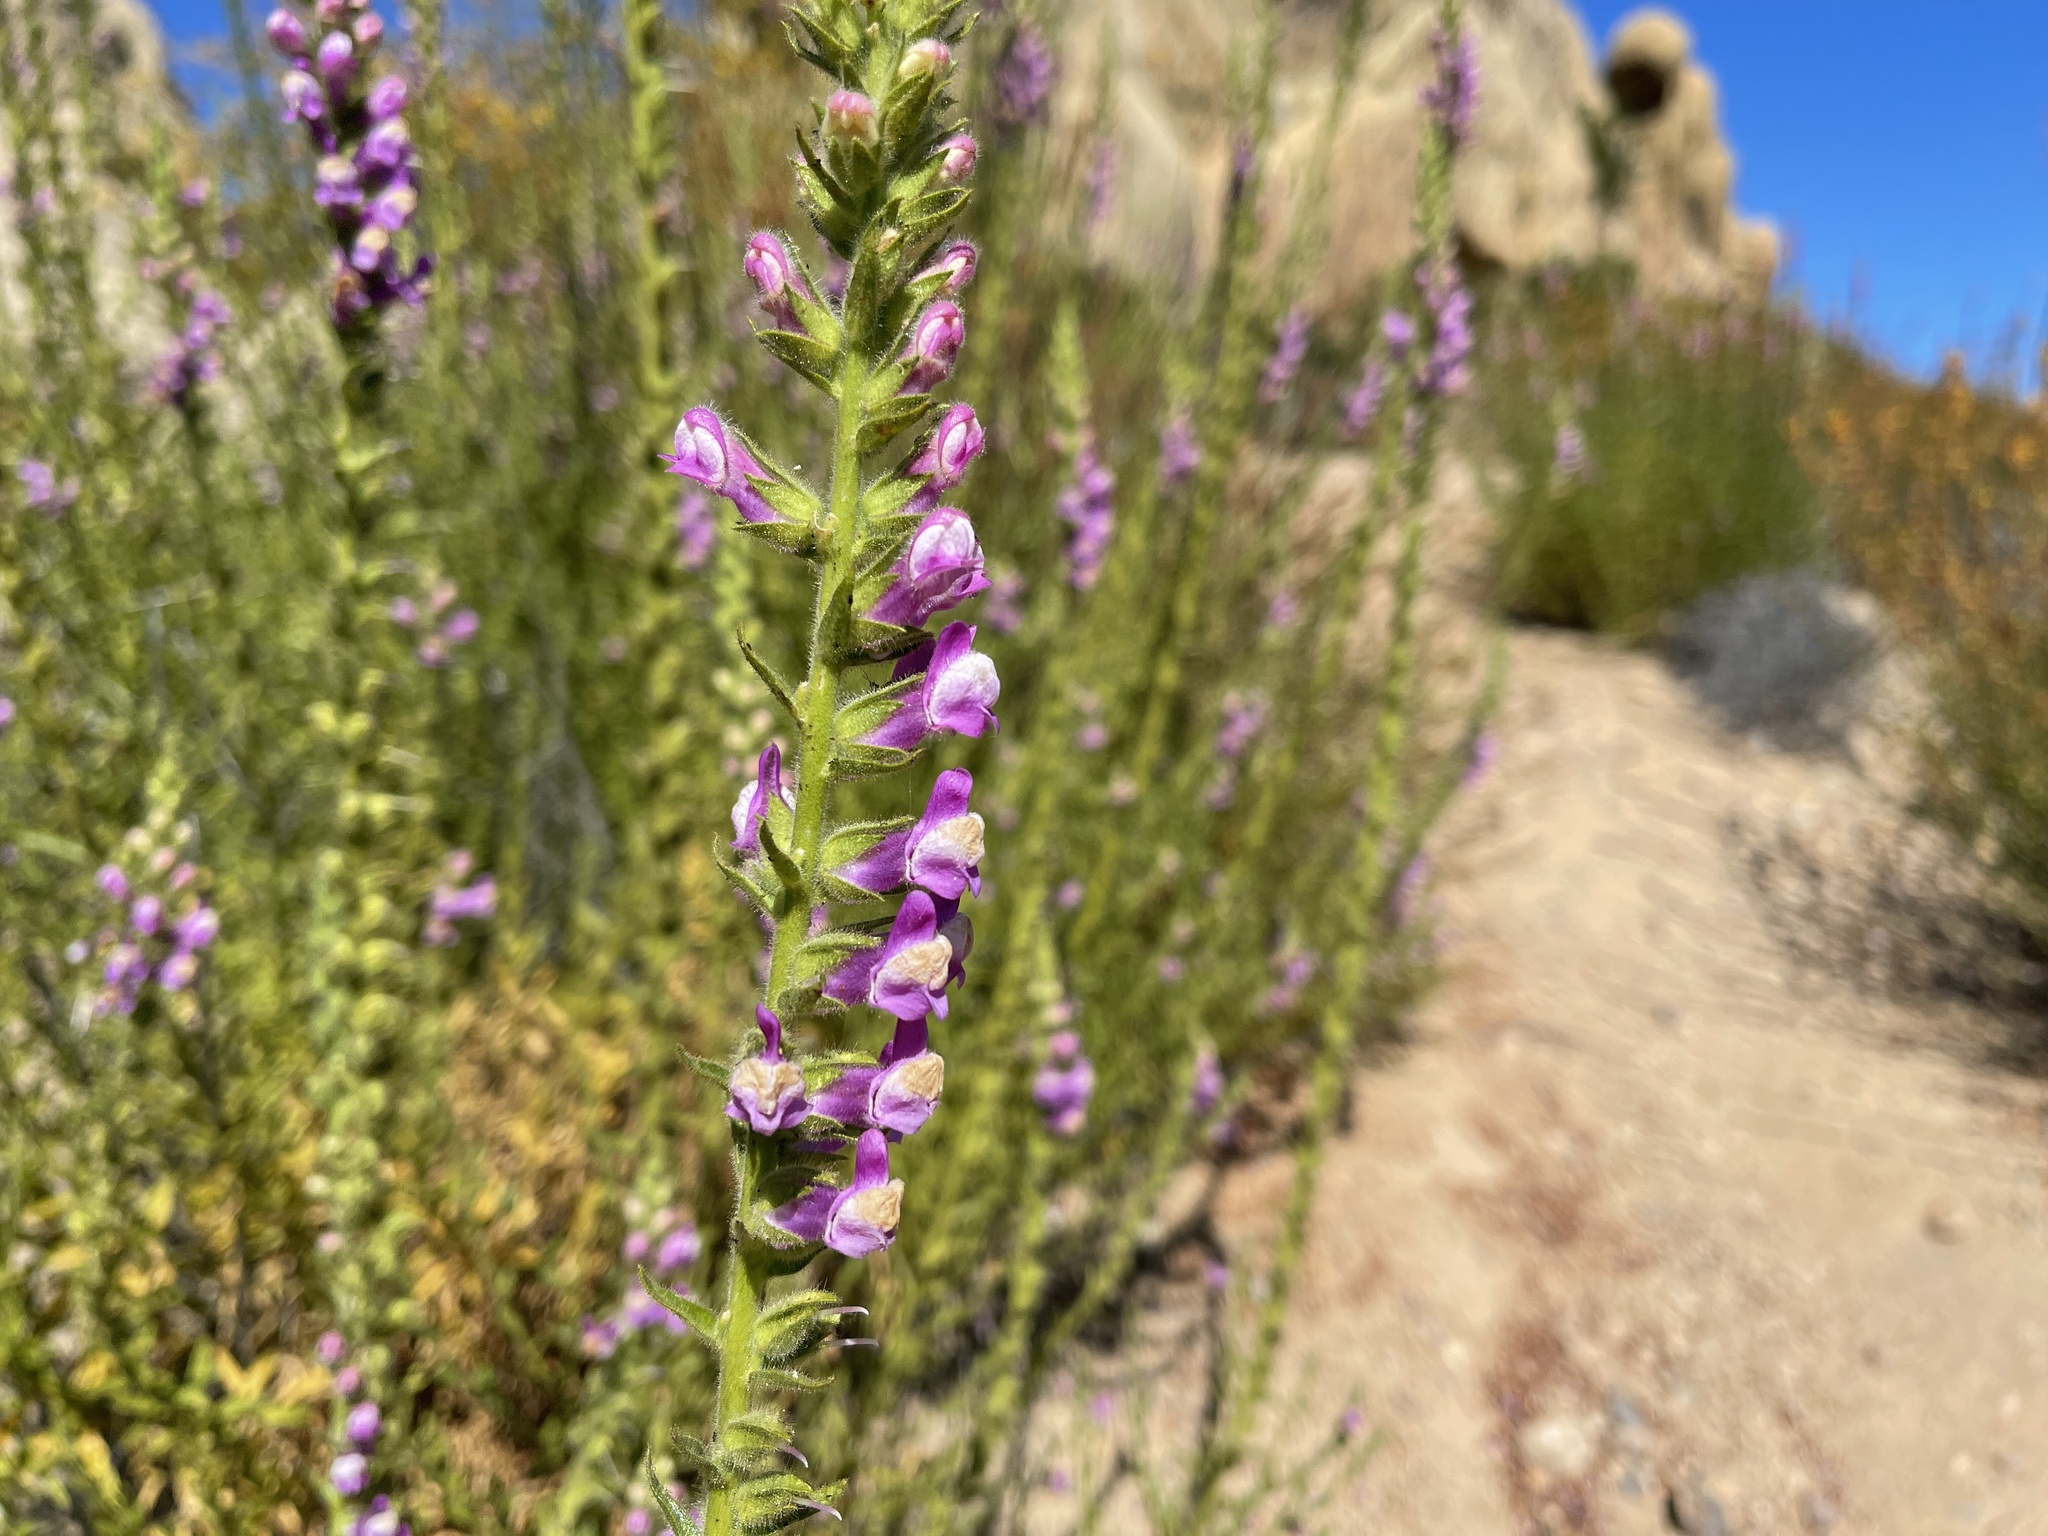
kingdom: Plantae
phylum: Tracheophyta
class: Magnoliopsida
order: Lamiales
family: Plantaginaceae
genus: Sairocarpus
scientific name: Sairocarpus multiflorus
